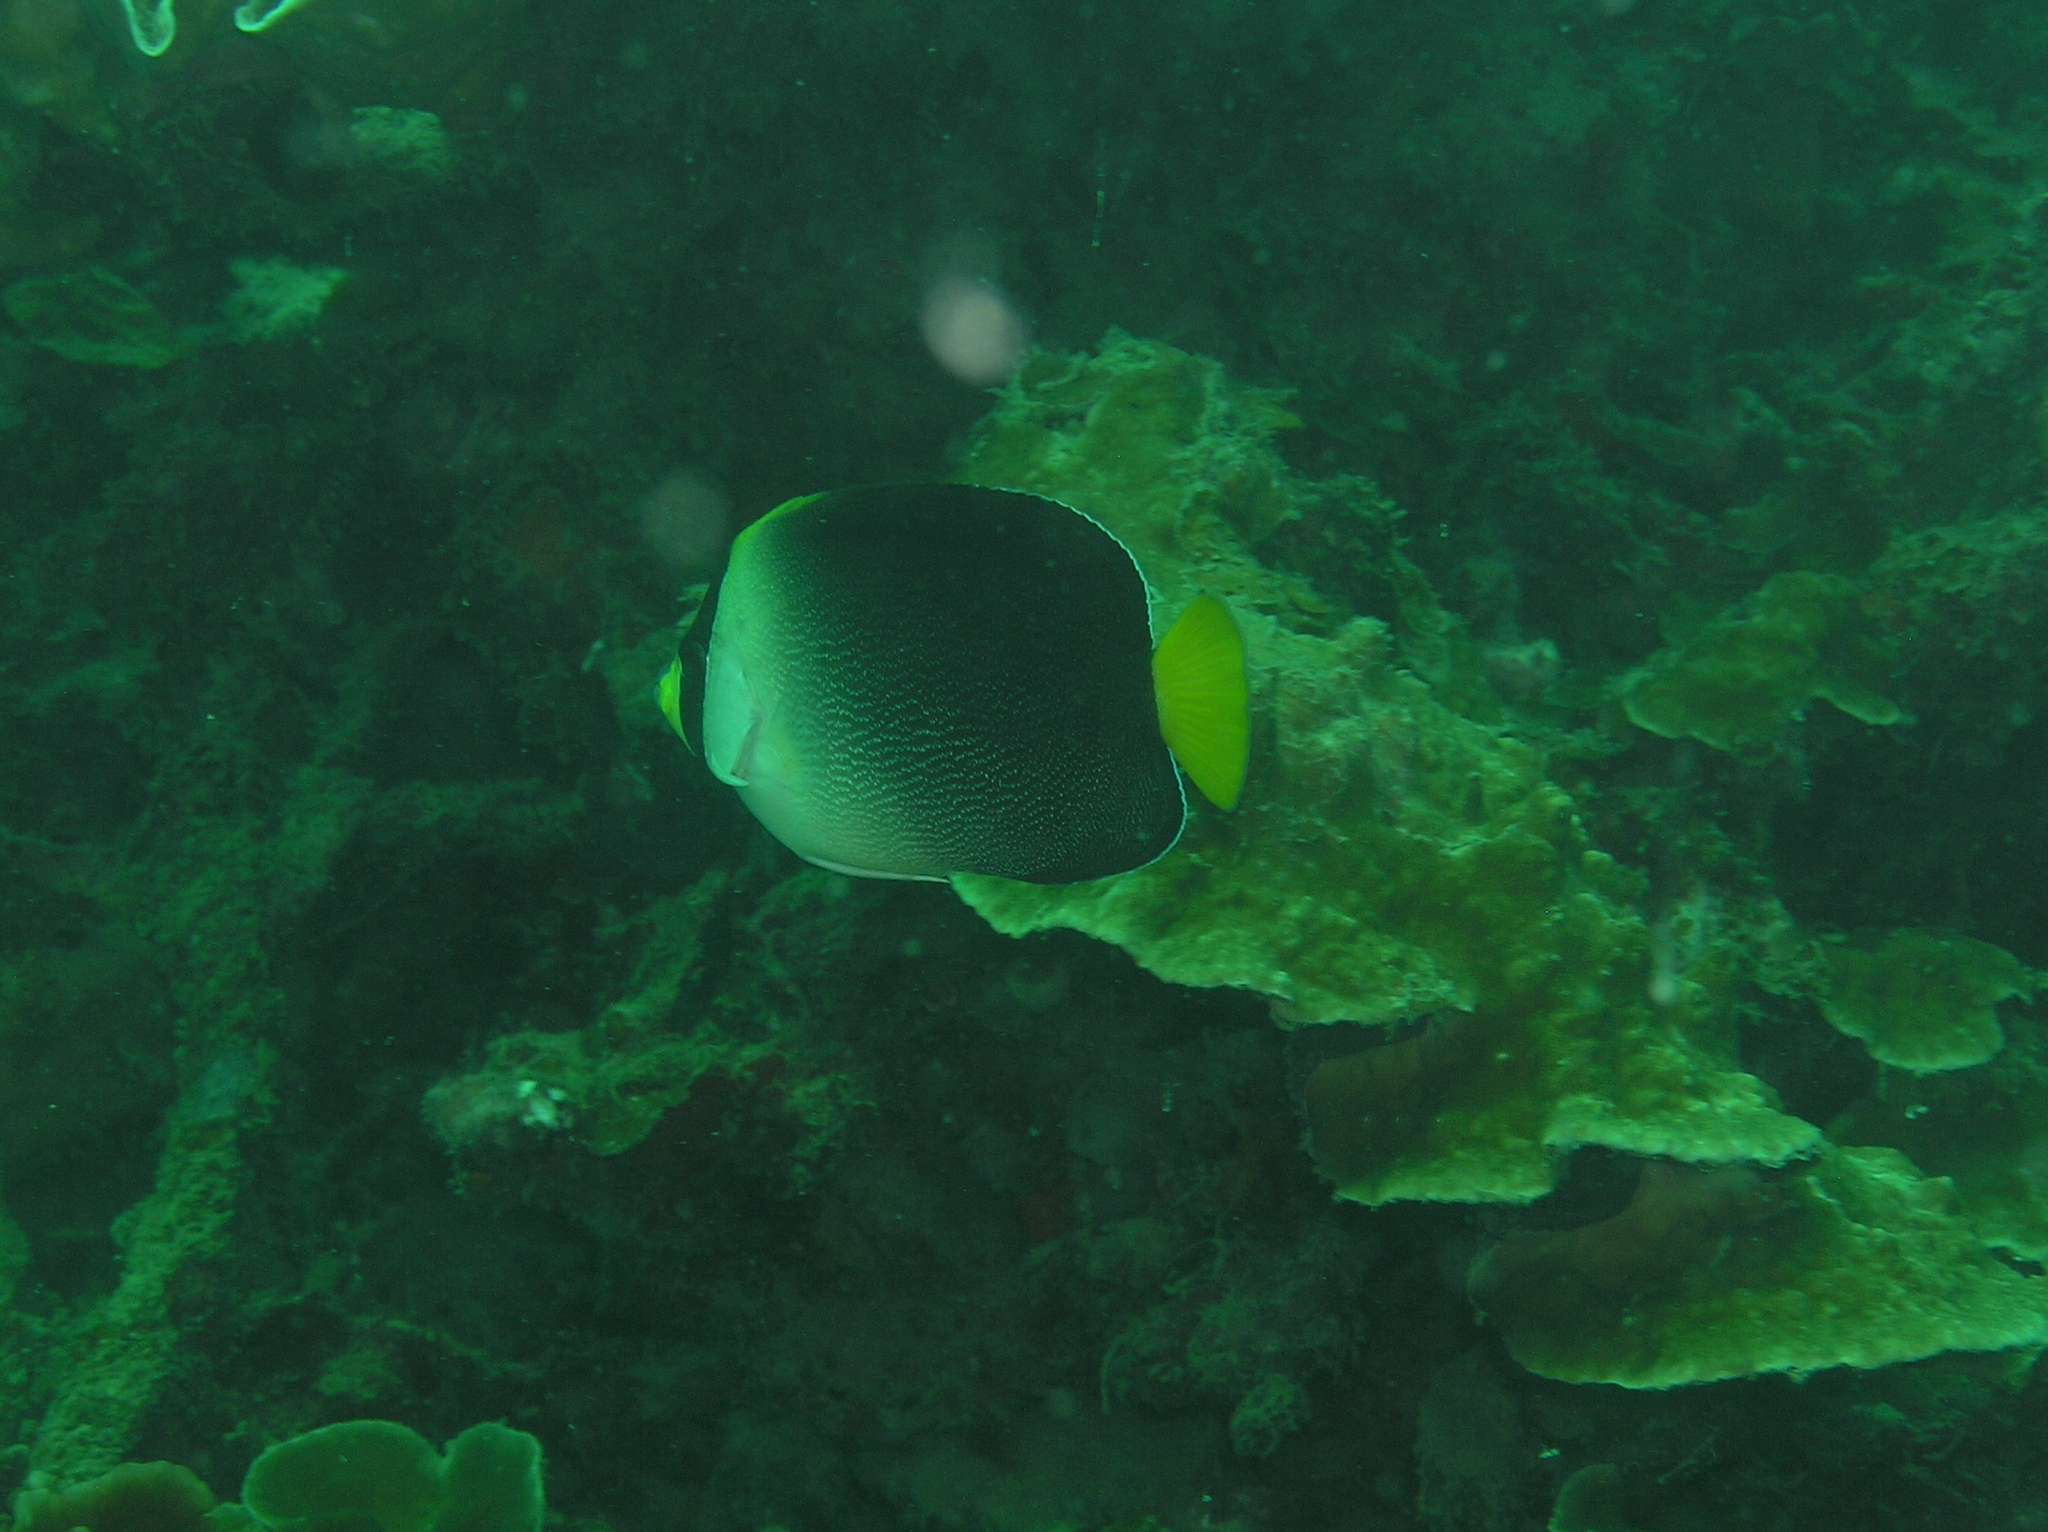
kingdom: Animalia
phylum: Chordata
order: Perciformes
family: Pomacanthidae
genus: Chaetodontoplus
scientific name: Chaetodontoplus mesoleucus
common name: Vermiculated angelfish
